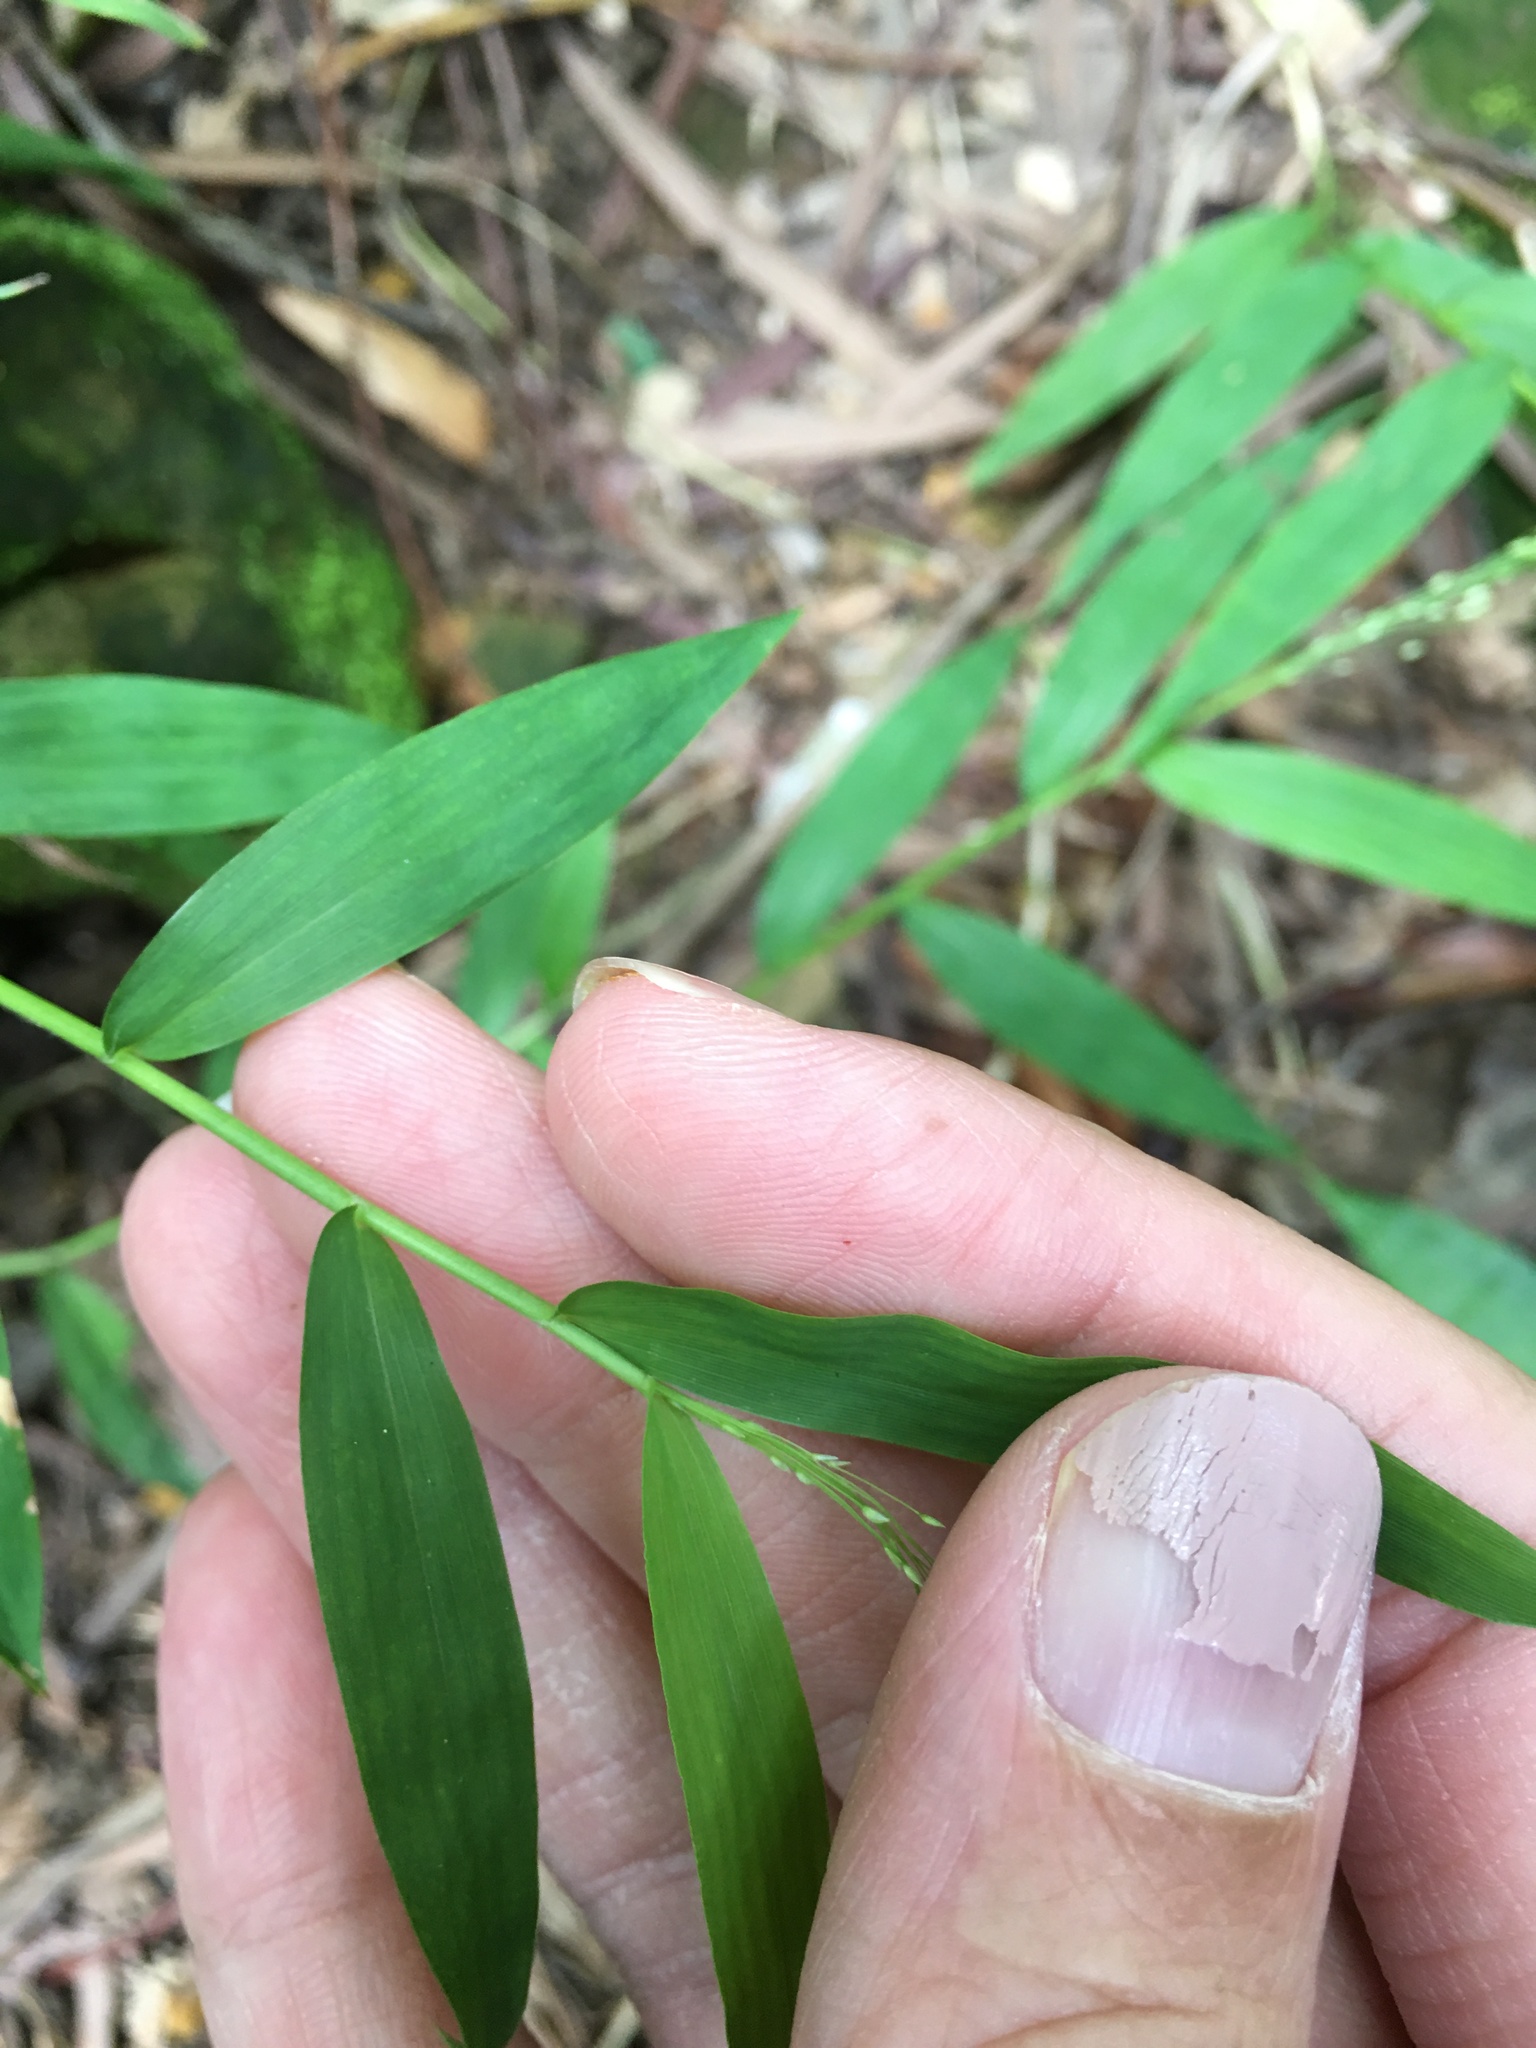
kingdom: Plantae
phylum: Tracheophyta
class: Liliopsida
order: Poales
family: Poaceae
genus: Cyrtococcum
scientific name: Cyrtococcum patens
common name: Broad-leaved bowgrass
